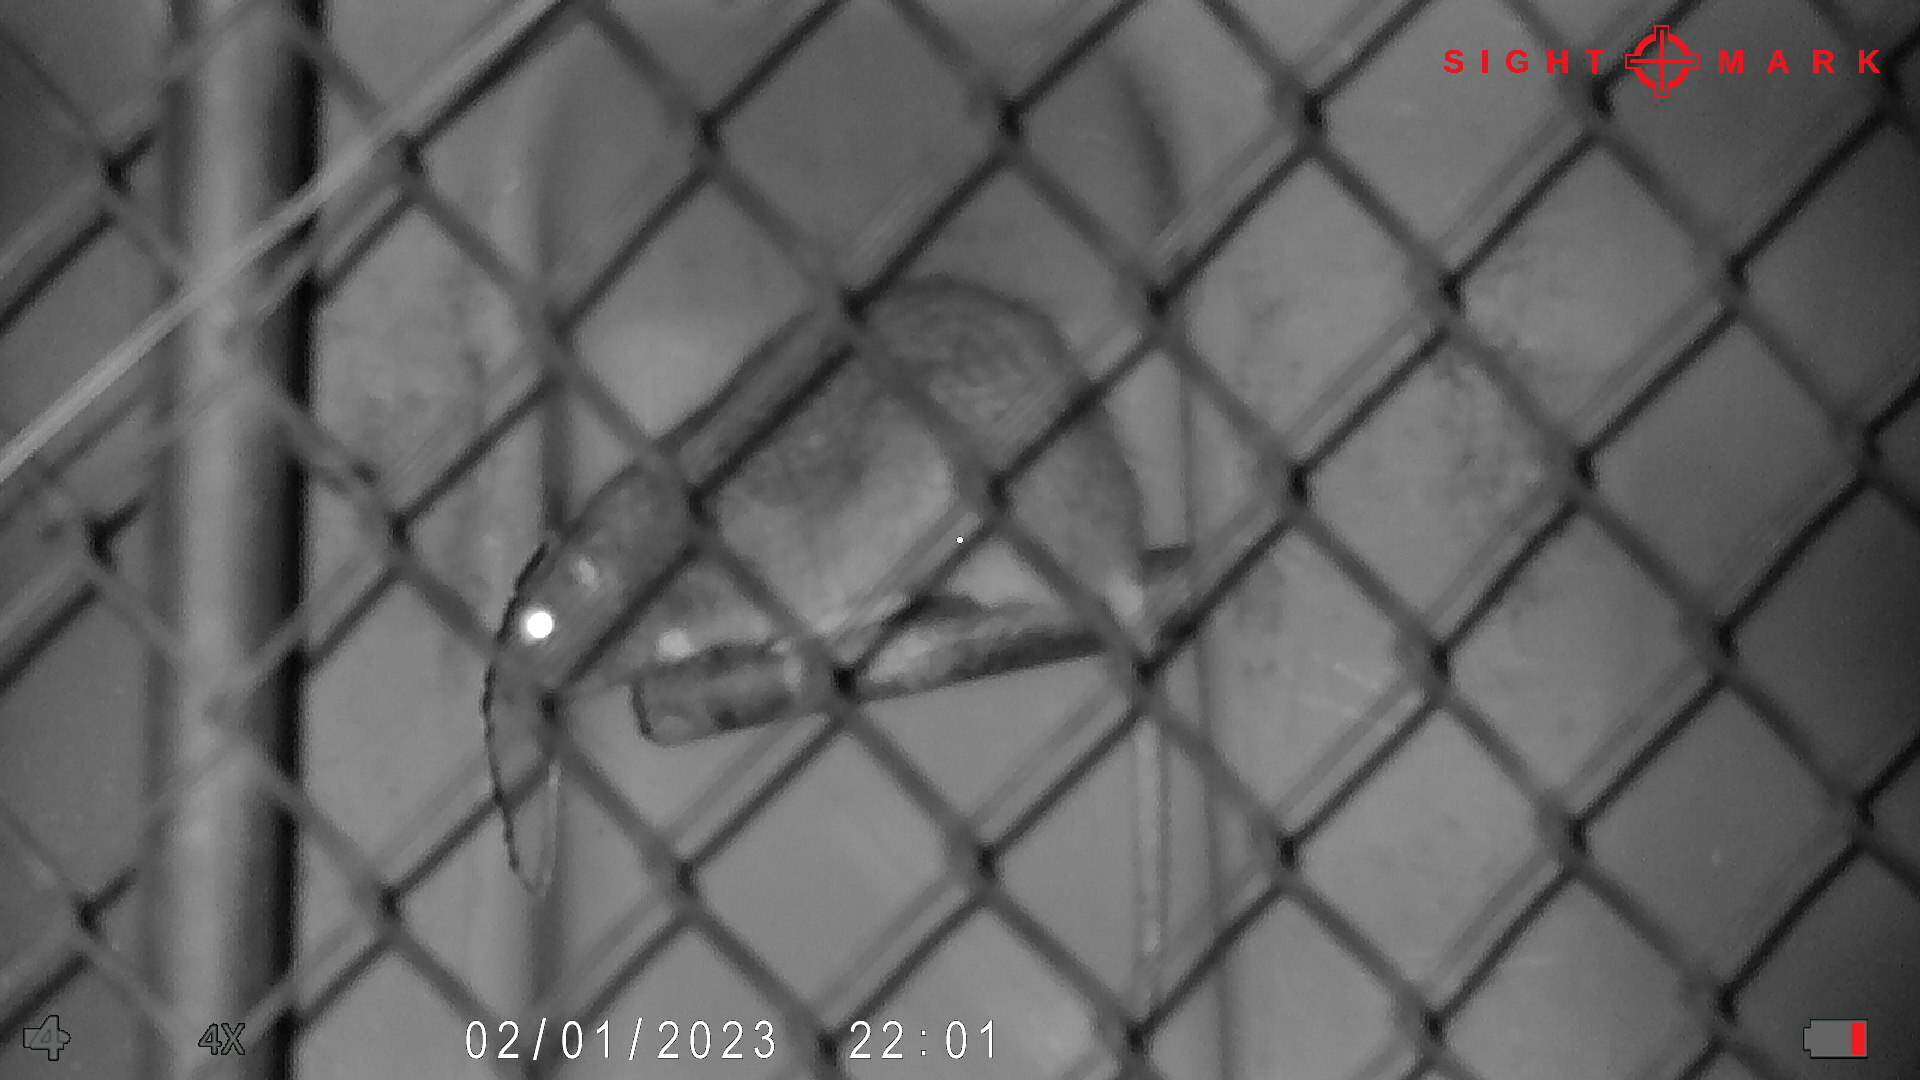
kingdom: Animalia
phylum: Chordata
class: Mammalia
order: Rodentia
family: Muridae
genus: Rattus
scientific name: Rattus norvegicus
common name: Brown rat
